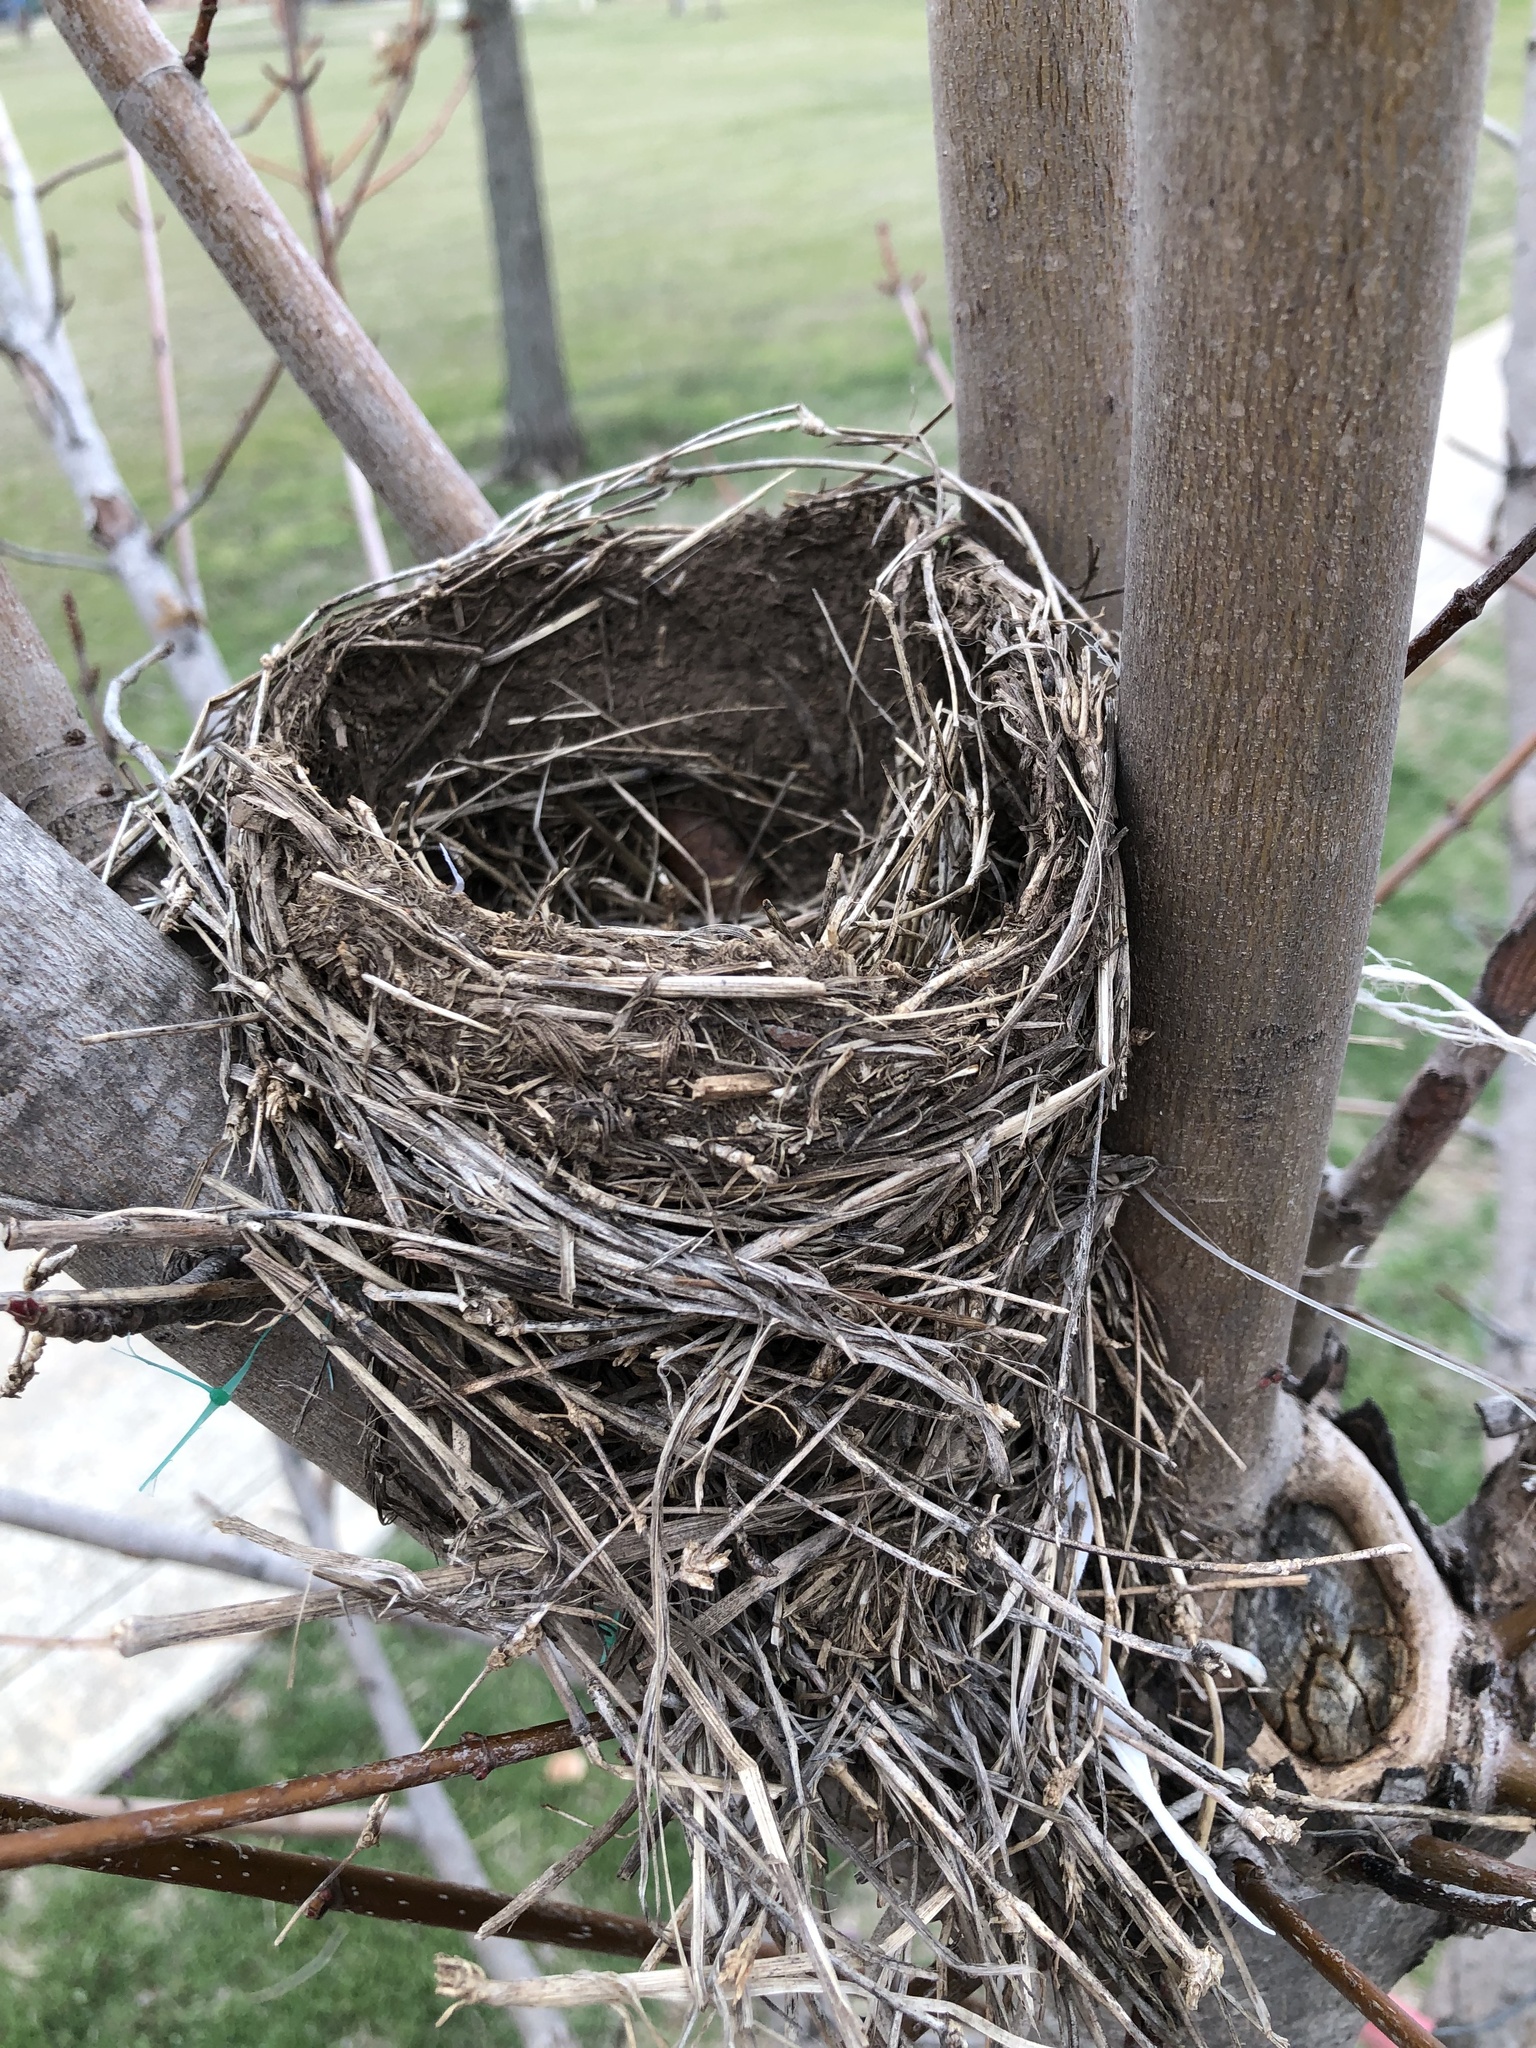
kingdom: Animalia
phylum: Chordata
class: Aves
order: Passeriformes
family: Turdidae
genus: Turdus
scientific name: Turdus migratorius
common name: American robin
